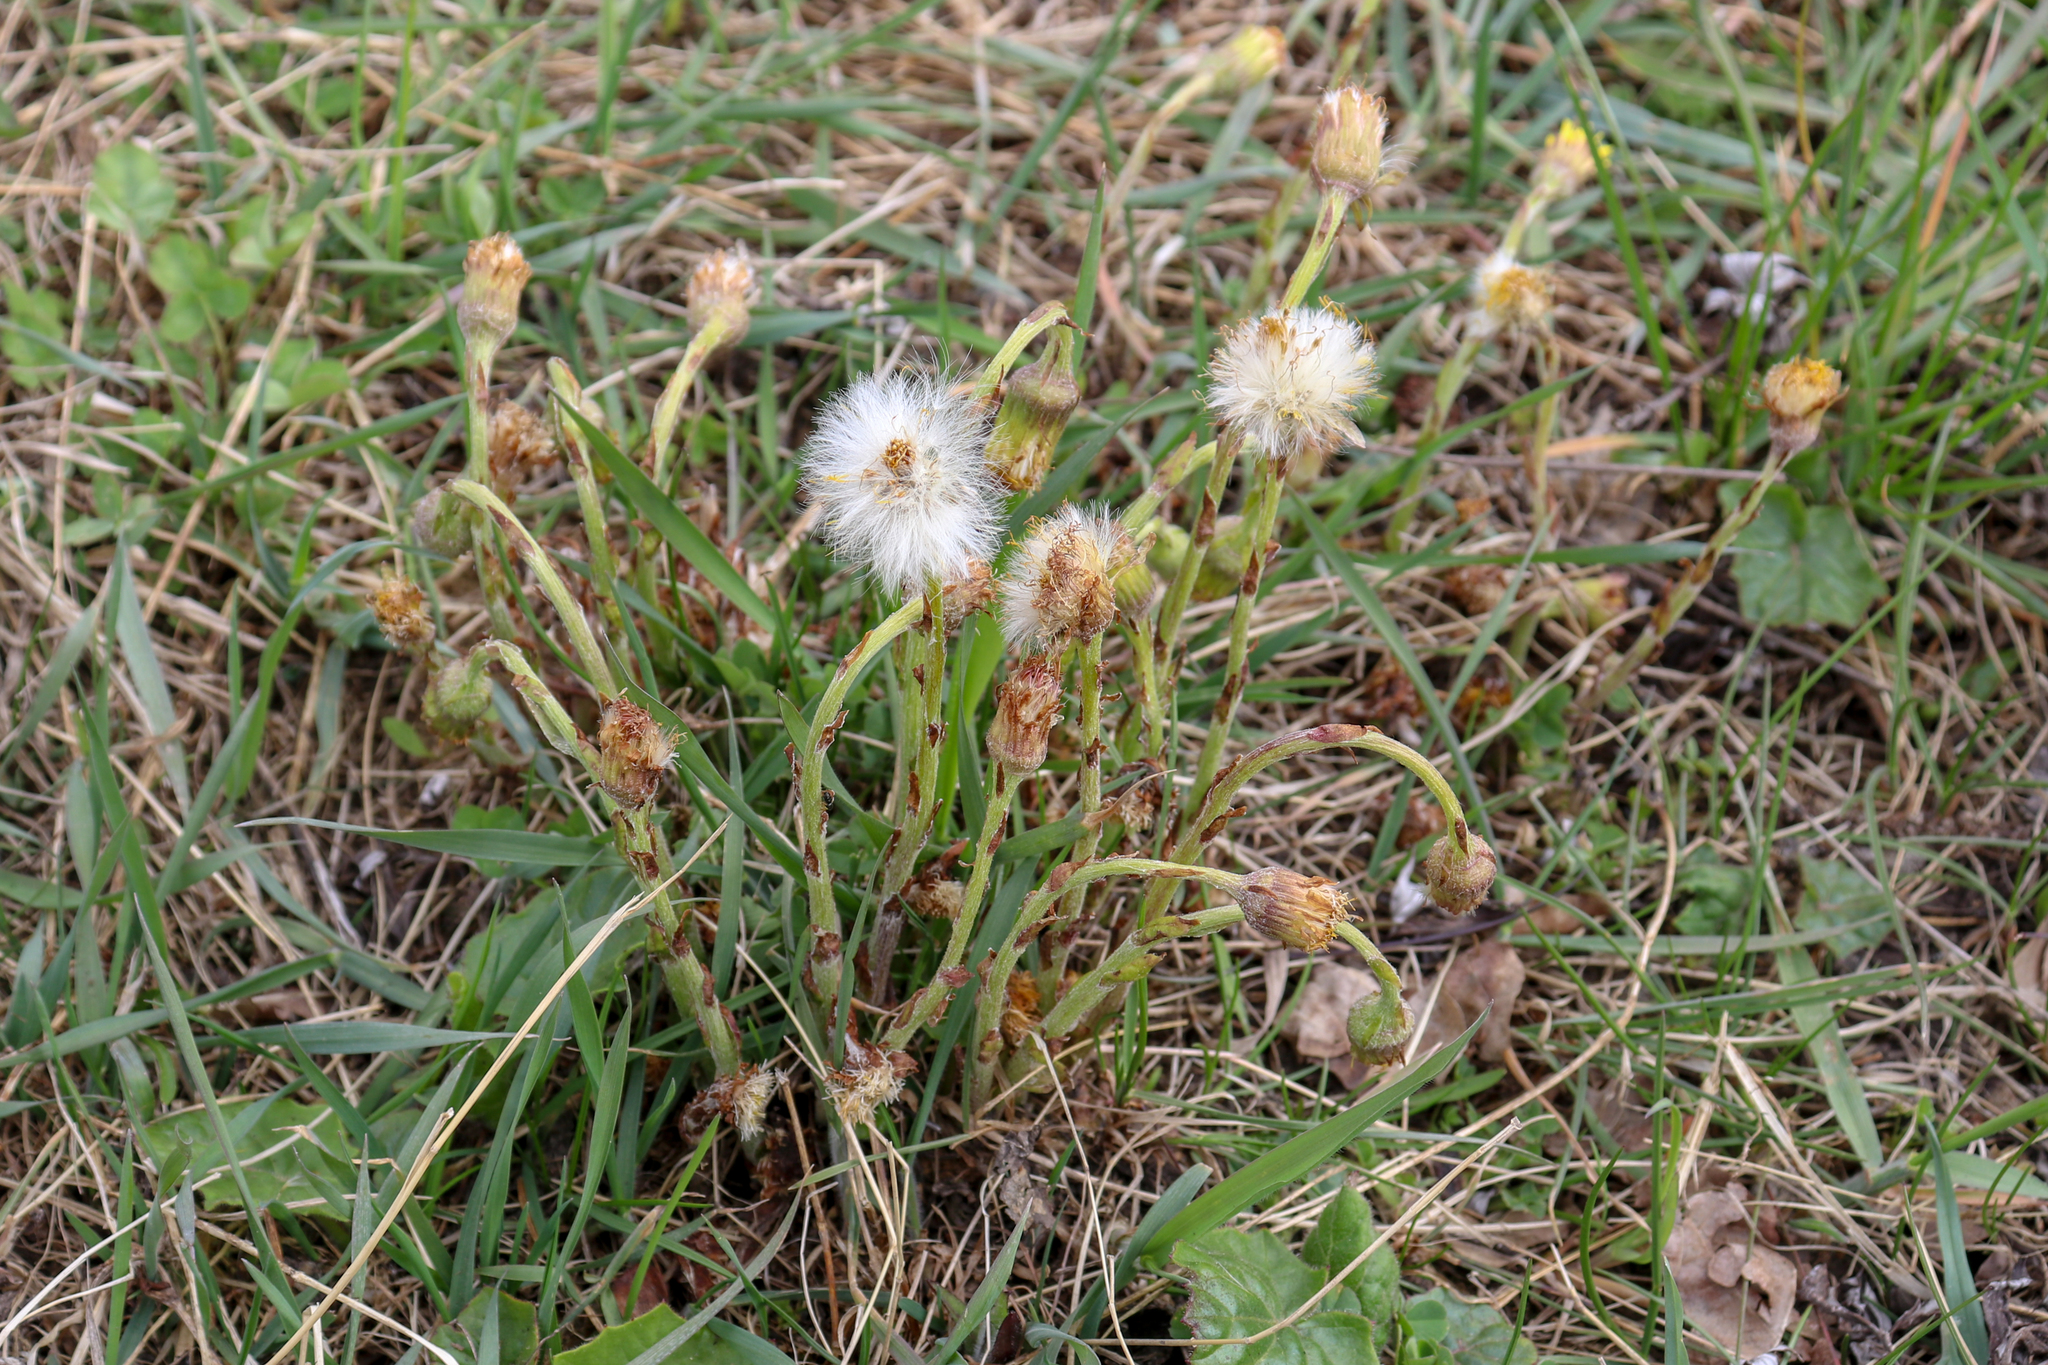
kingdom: Plantae
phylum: Tracheophyta
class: Magnoliopsida
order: Asterales
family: Asteraceae
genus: Tussilago
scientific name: Tussilago farfara
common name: Coltsfoot
